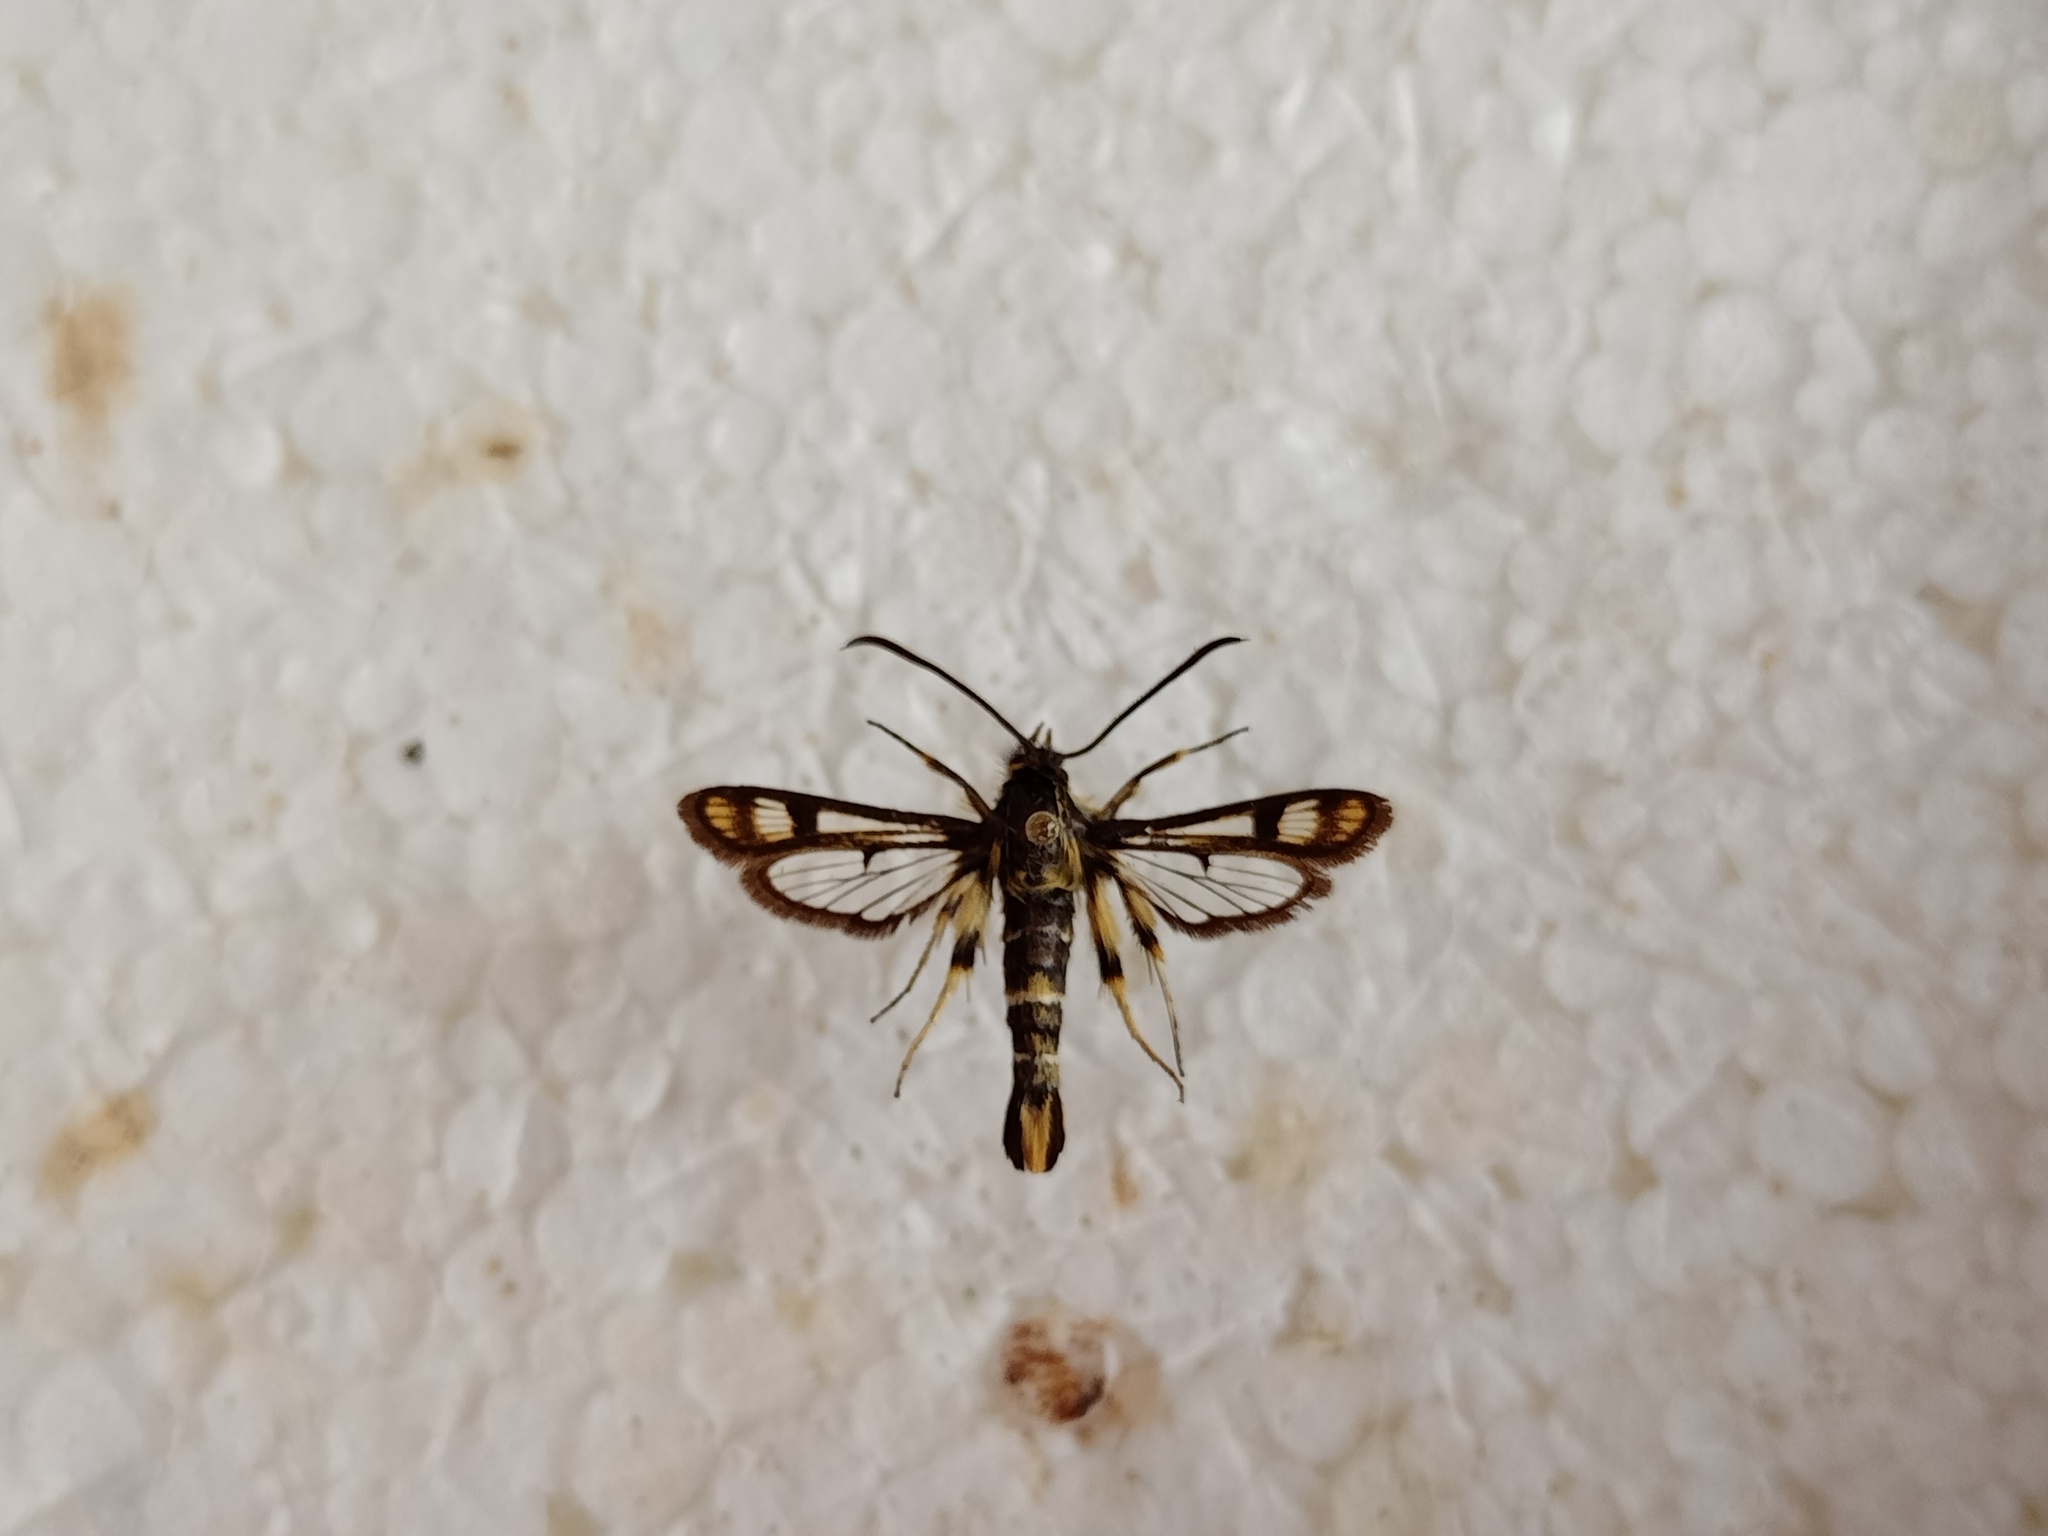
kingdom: Animalia
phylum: Arthropoda
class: Insecta
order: Lepidoptera
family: Sesiidae
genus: Pyropteron
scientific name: Pyropteron hera
